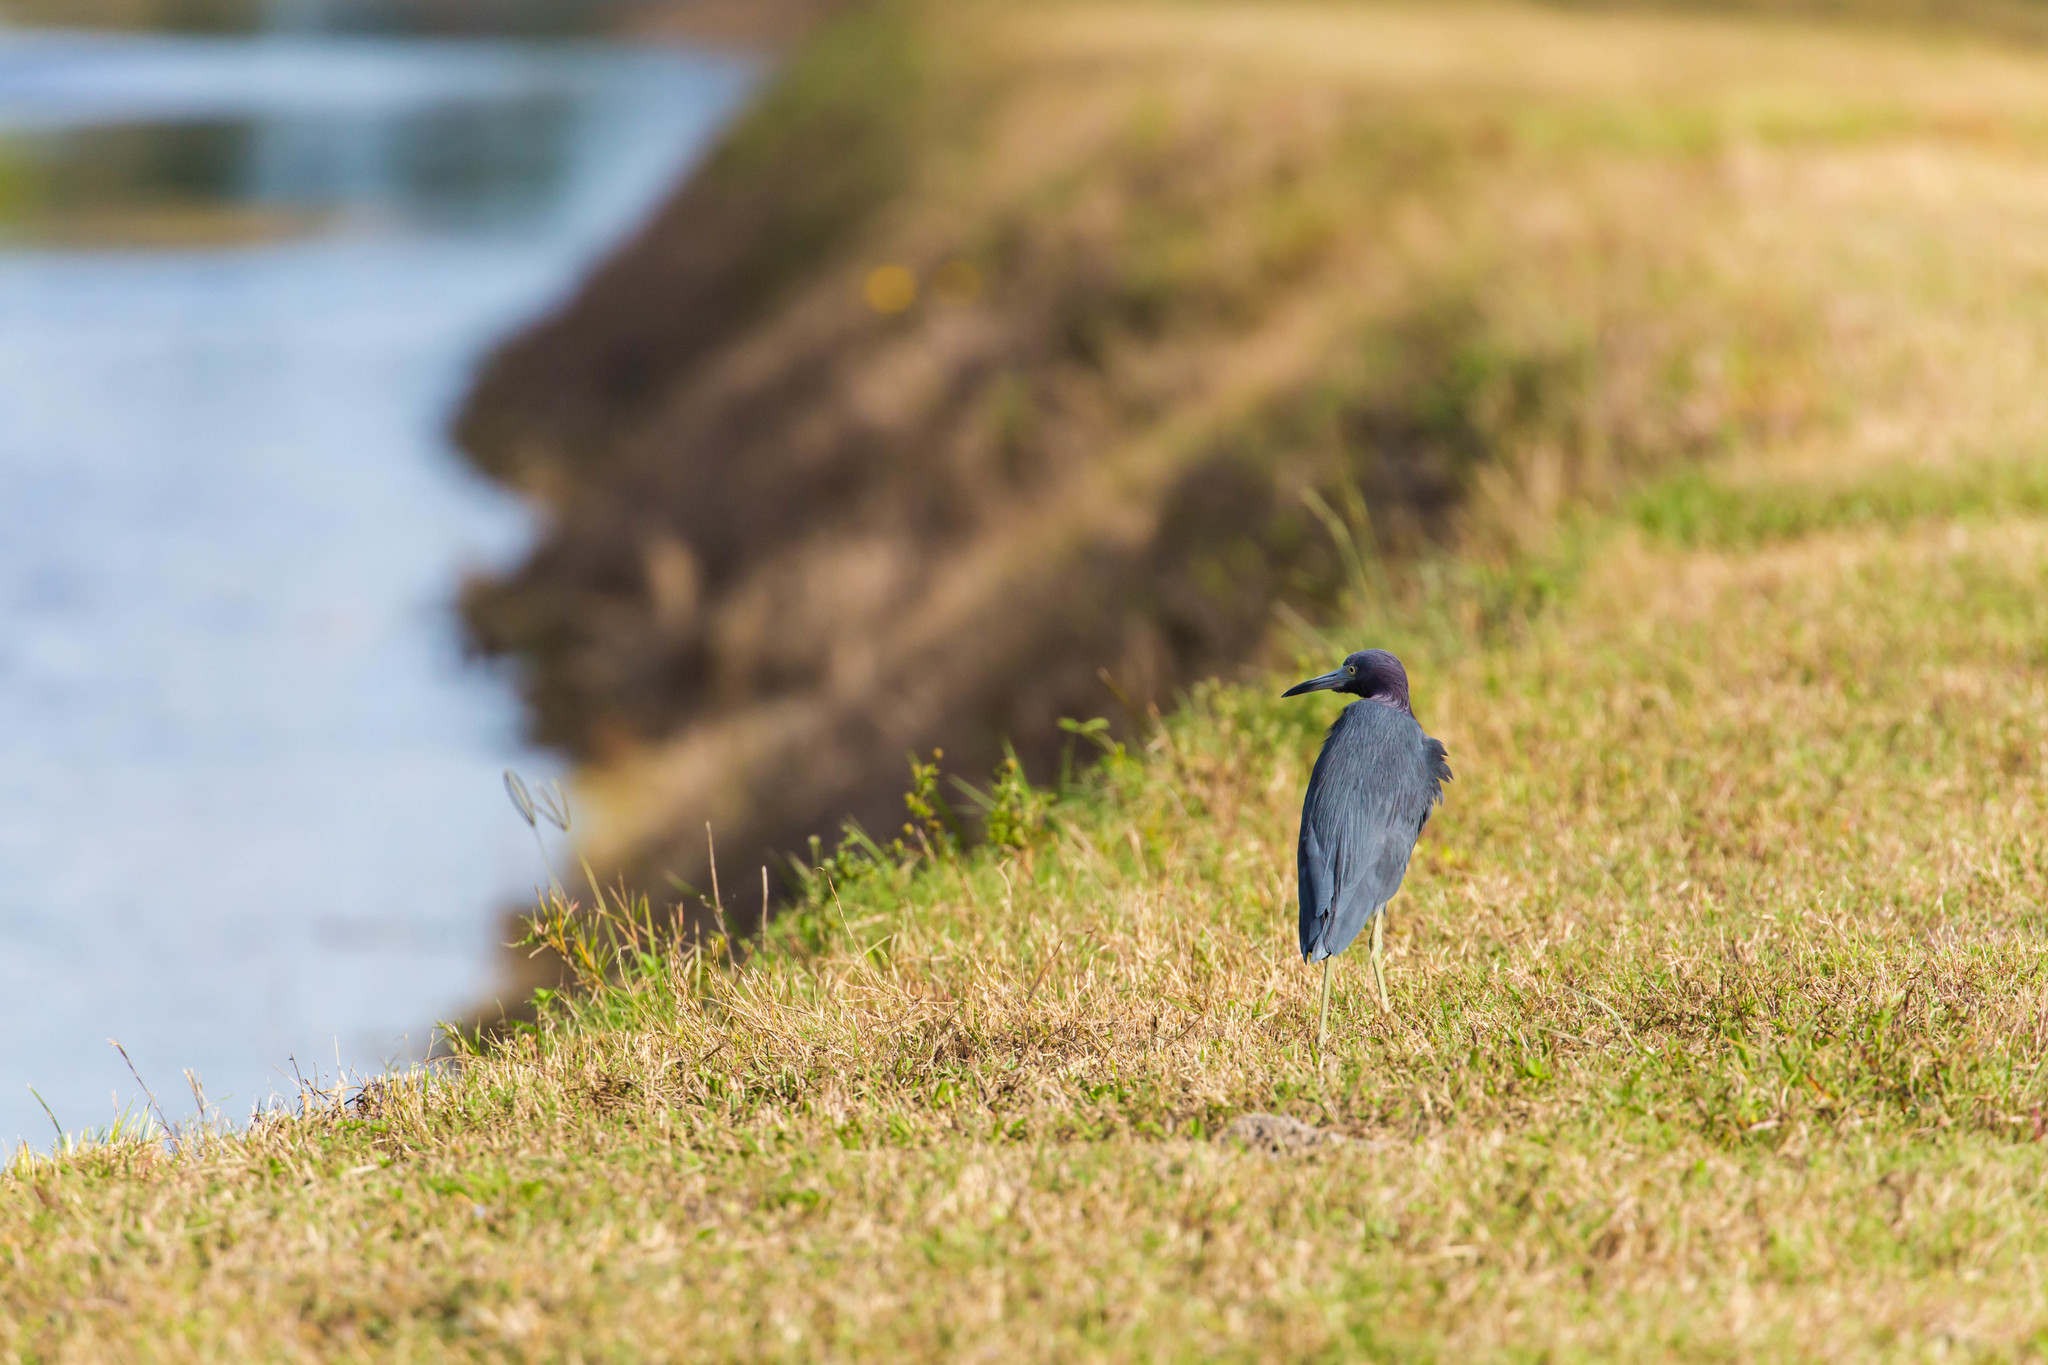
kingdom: Animalia
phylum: Chordata
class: Aves
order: Pelecaniformes
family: Ardeidae
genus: Egretta
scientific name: Egretta caerulea
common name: Little blue heron
